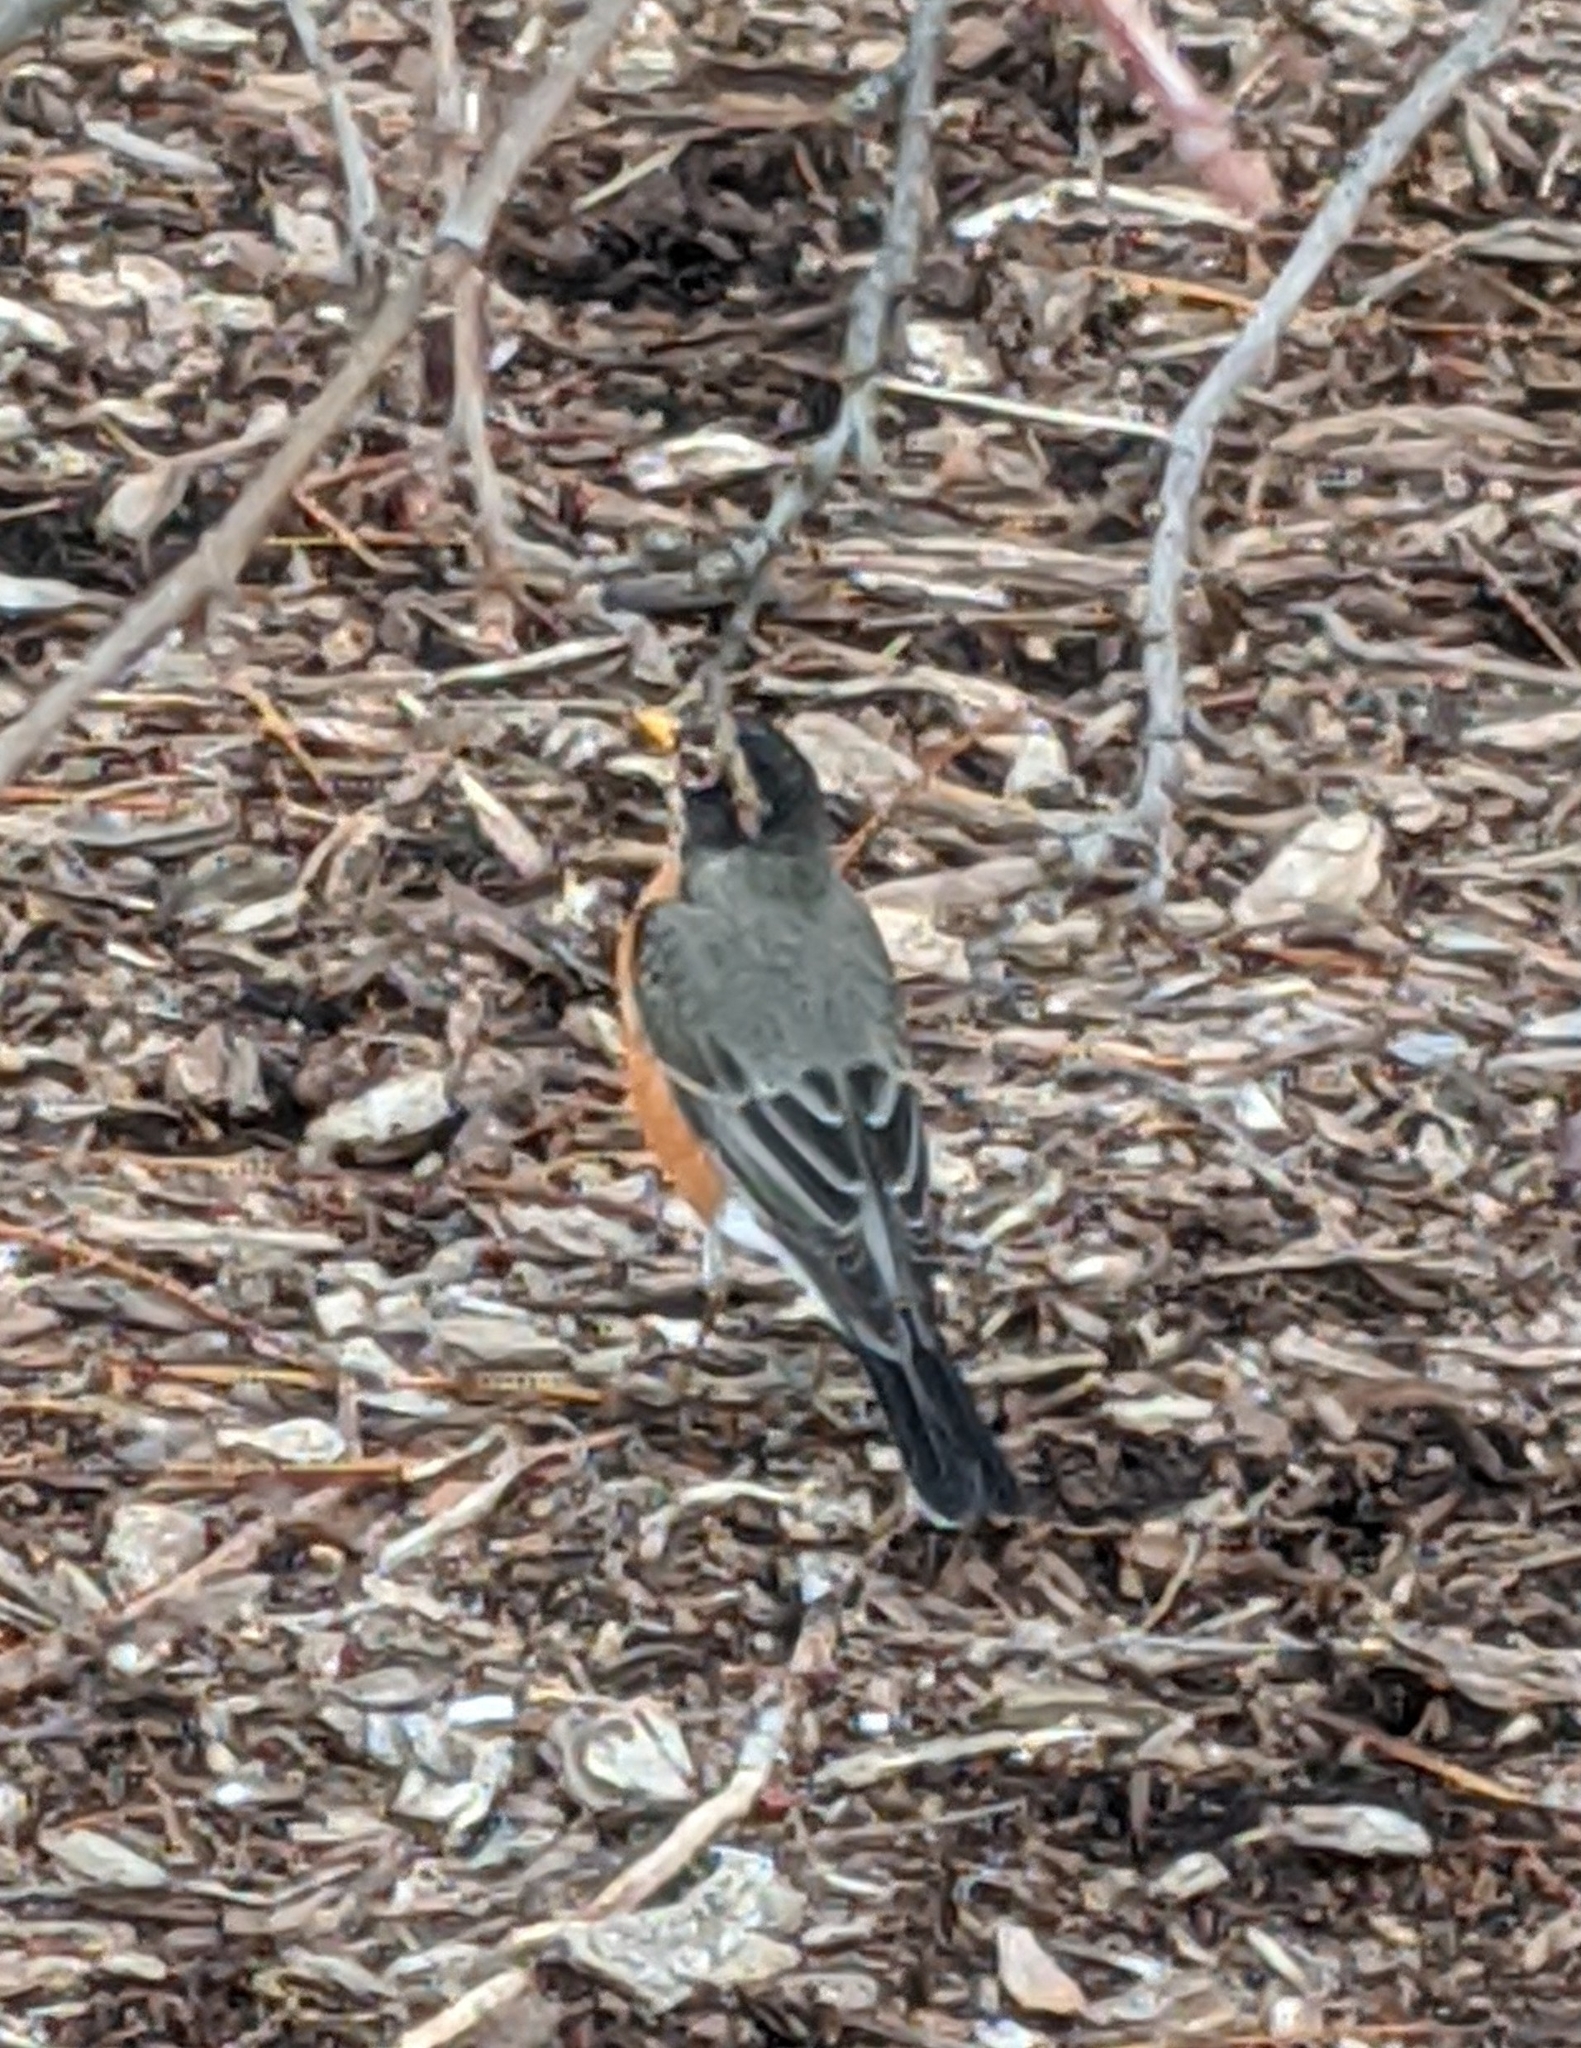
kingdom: Animalia
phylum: Chordata
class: Aves
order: Passeriformes
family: Turdidae
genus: Turdus
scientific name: Turdus migratorius
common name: American robin
